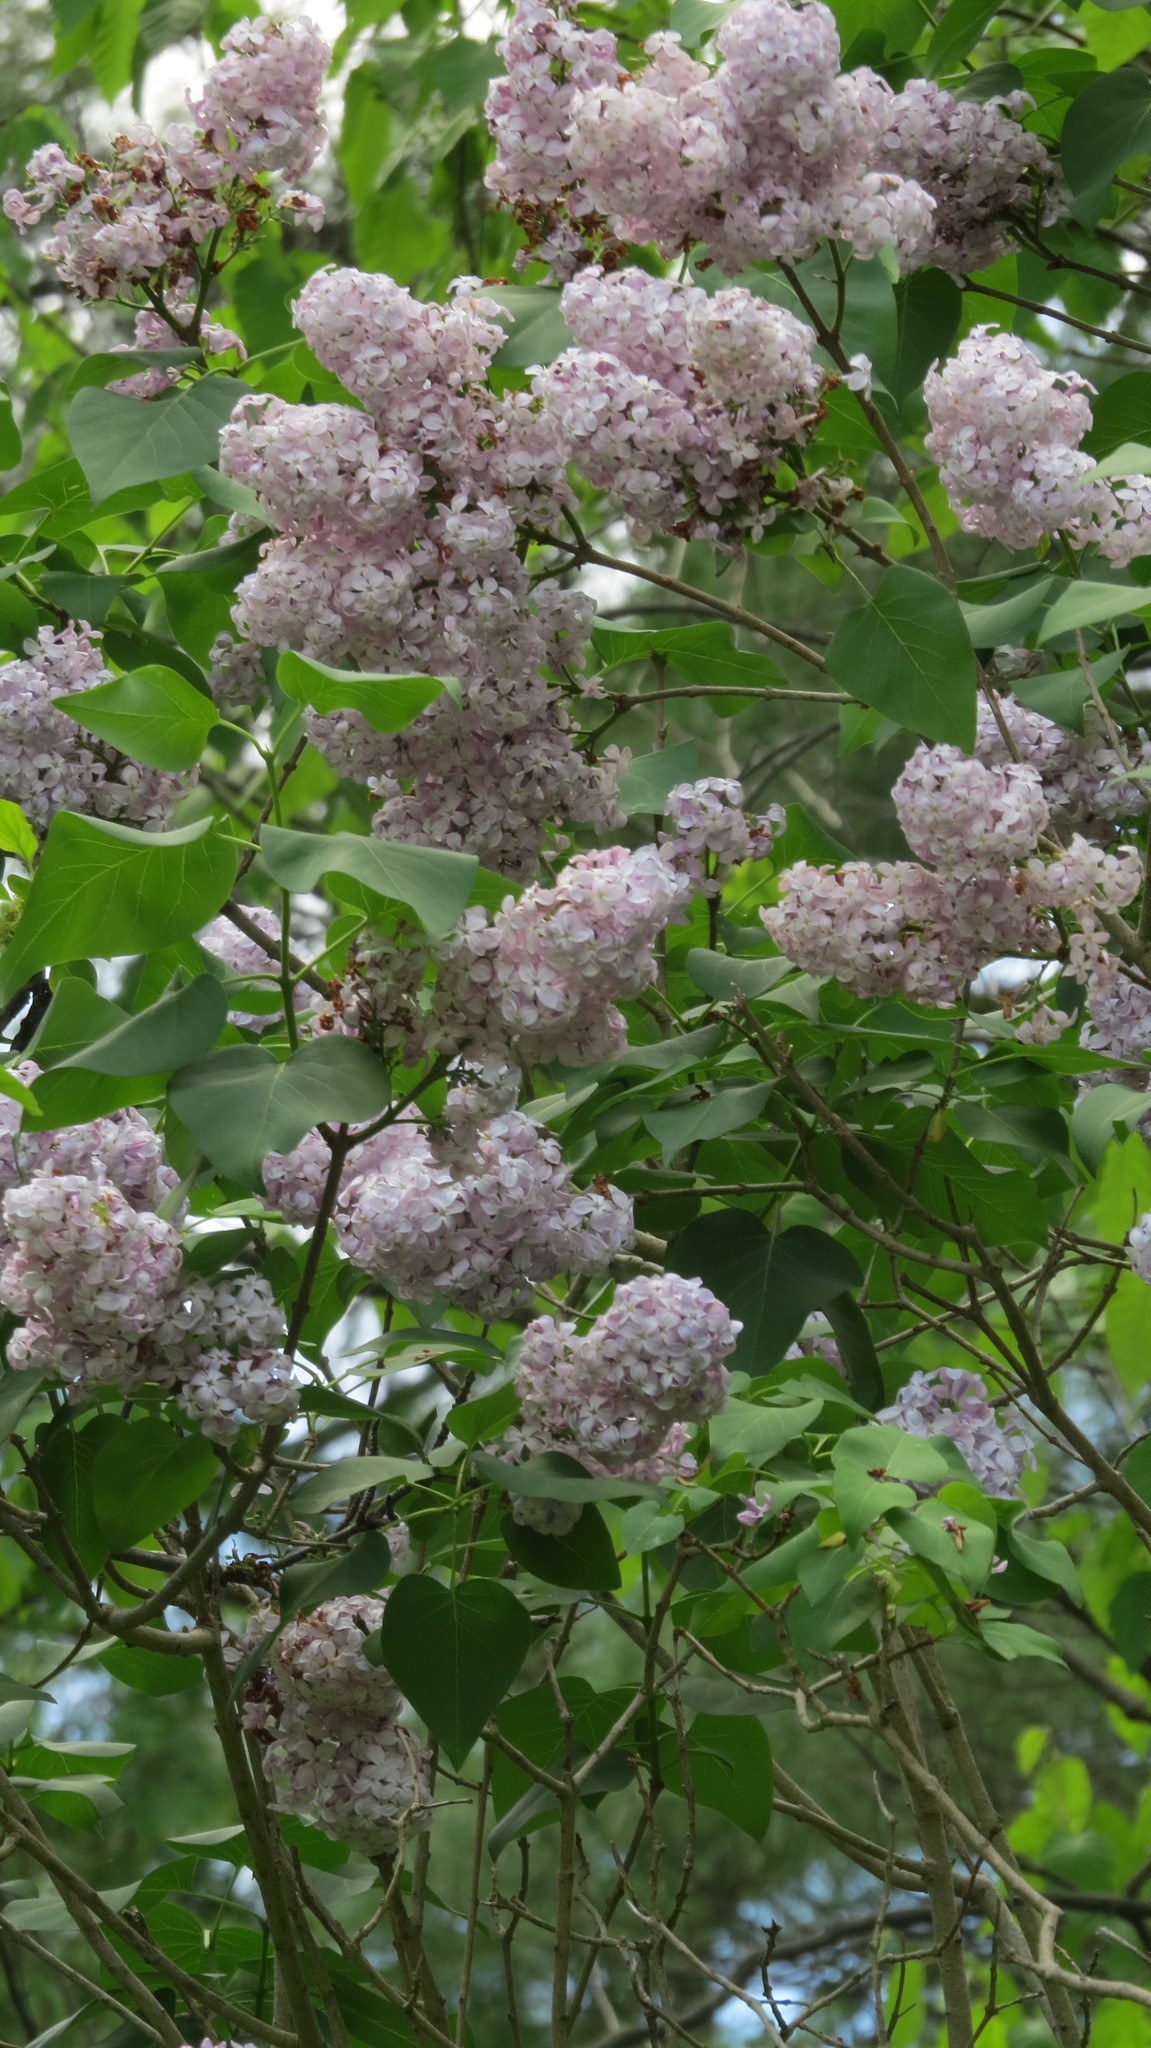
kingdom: Plantae
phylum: Tracheophyta
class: Magnoliopsida
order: Lamiales
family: Oleaceae
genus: Syringa
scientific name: Syringa vulgaris
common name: Common lilac
